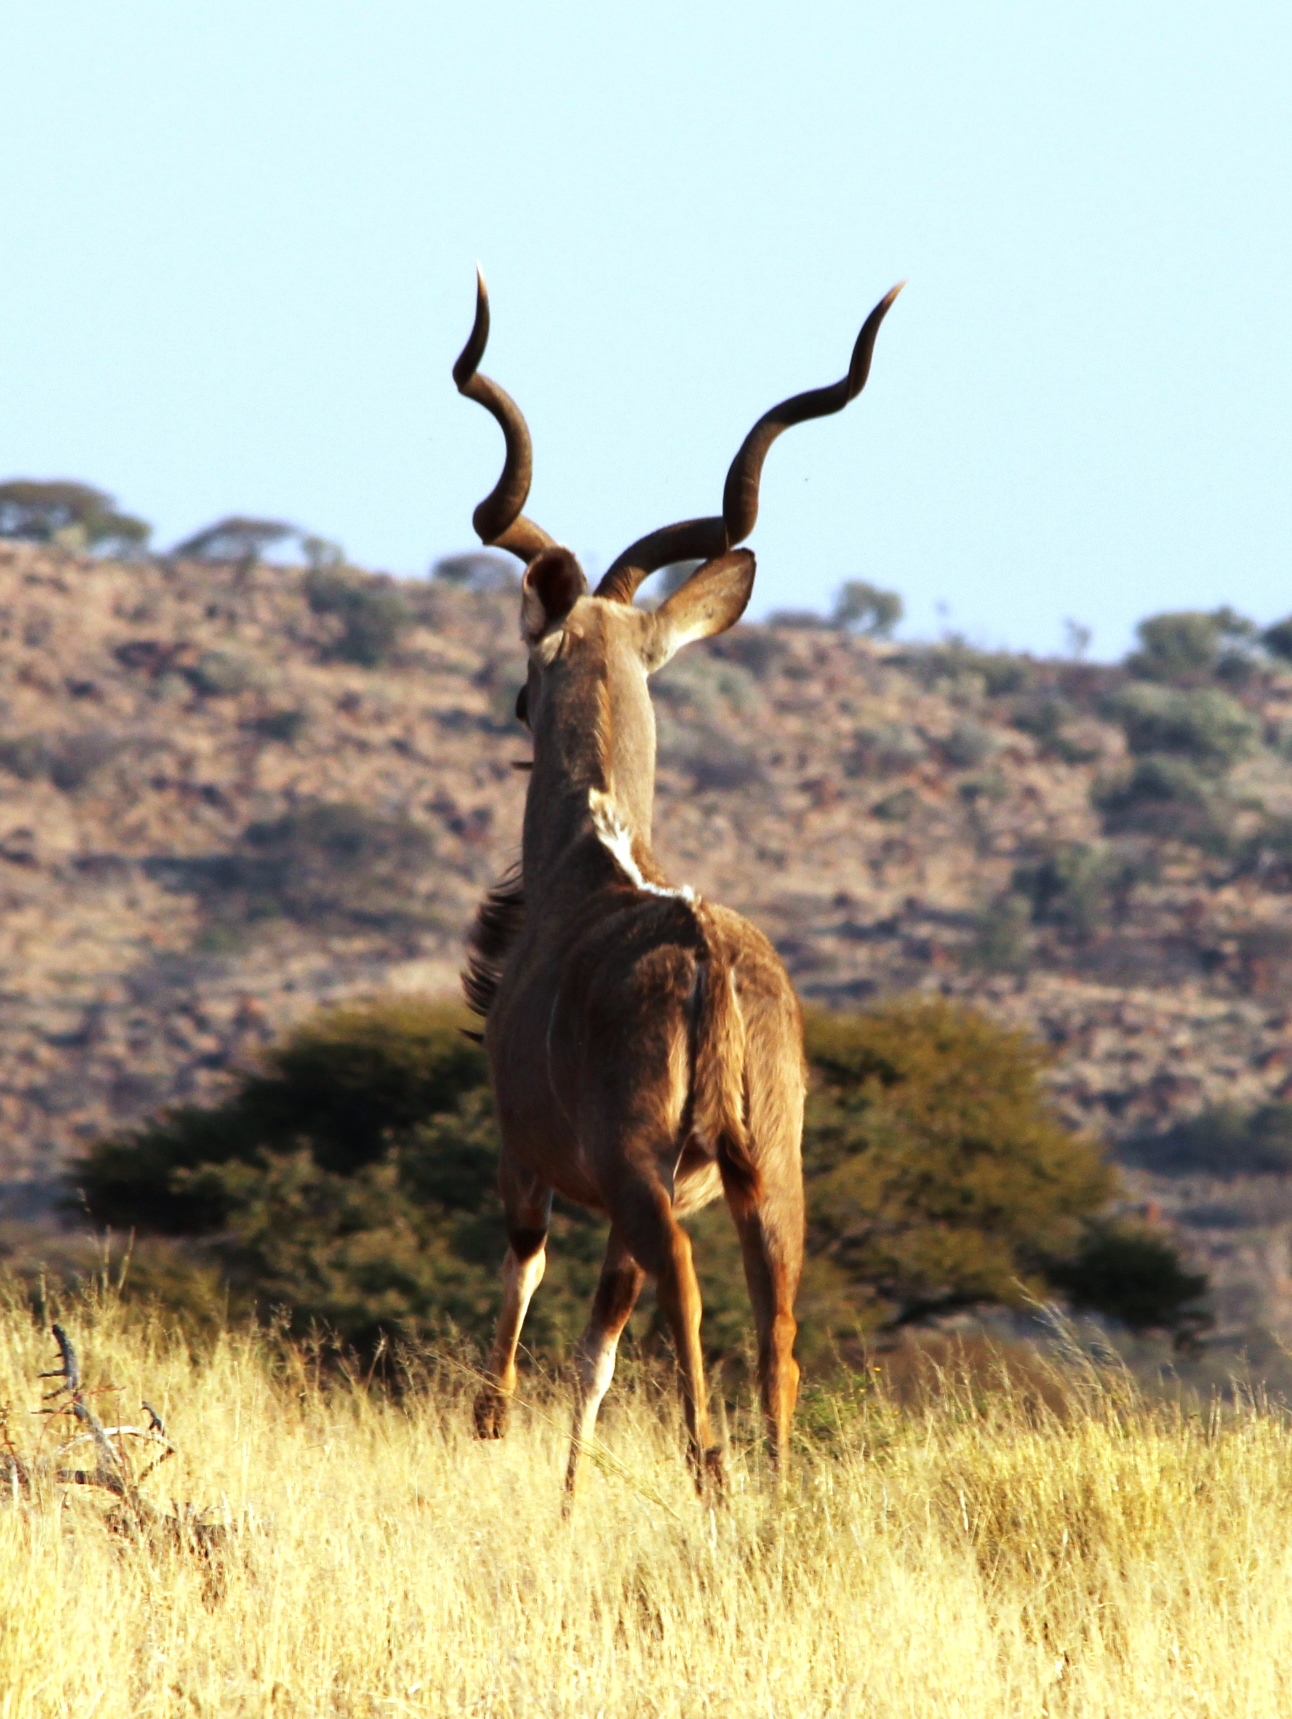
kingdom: Animalia
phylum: Chordata
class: Mammalia
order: Artiodactyla
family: Bovidae
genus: Tragelaphus
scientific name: Tragelaphus strepsiceros
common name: Greater kudu
